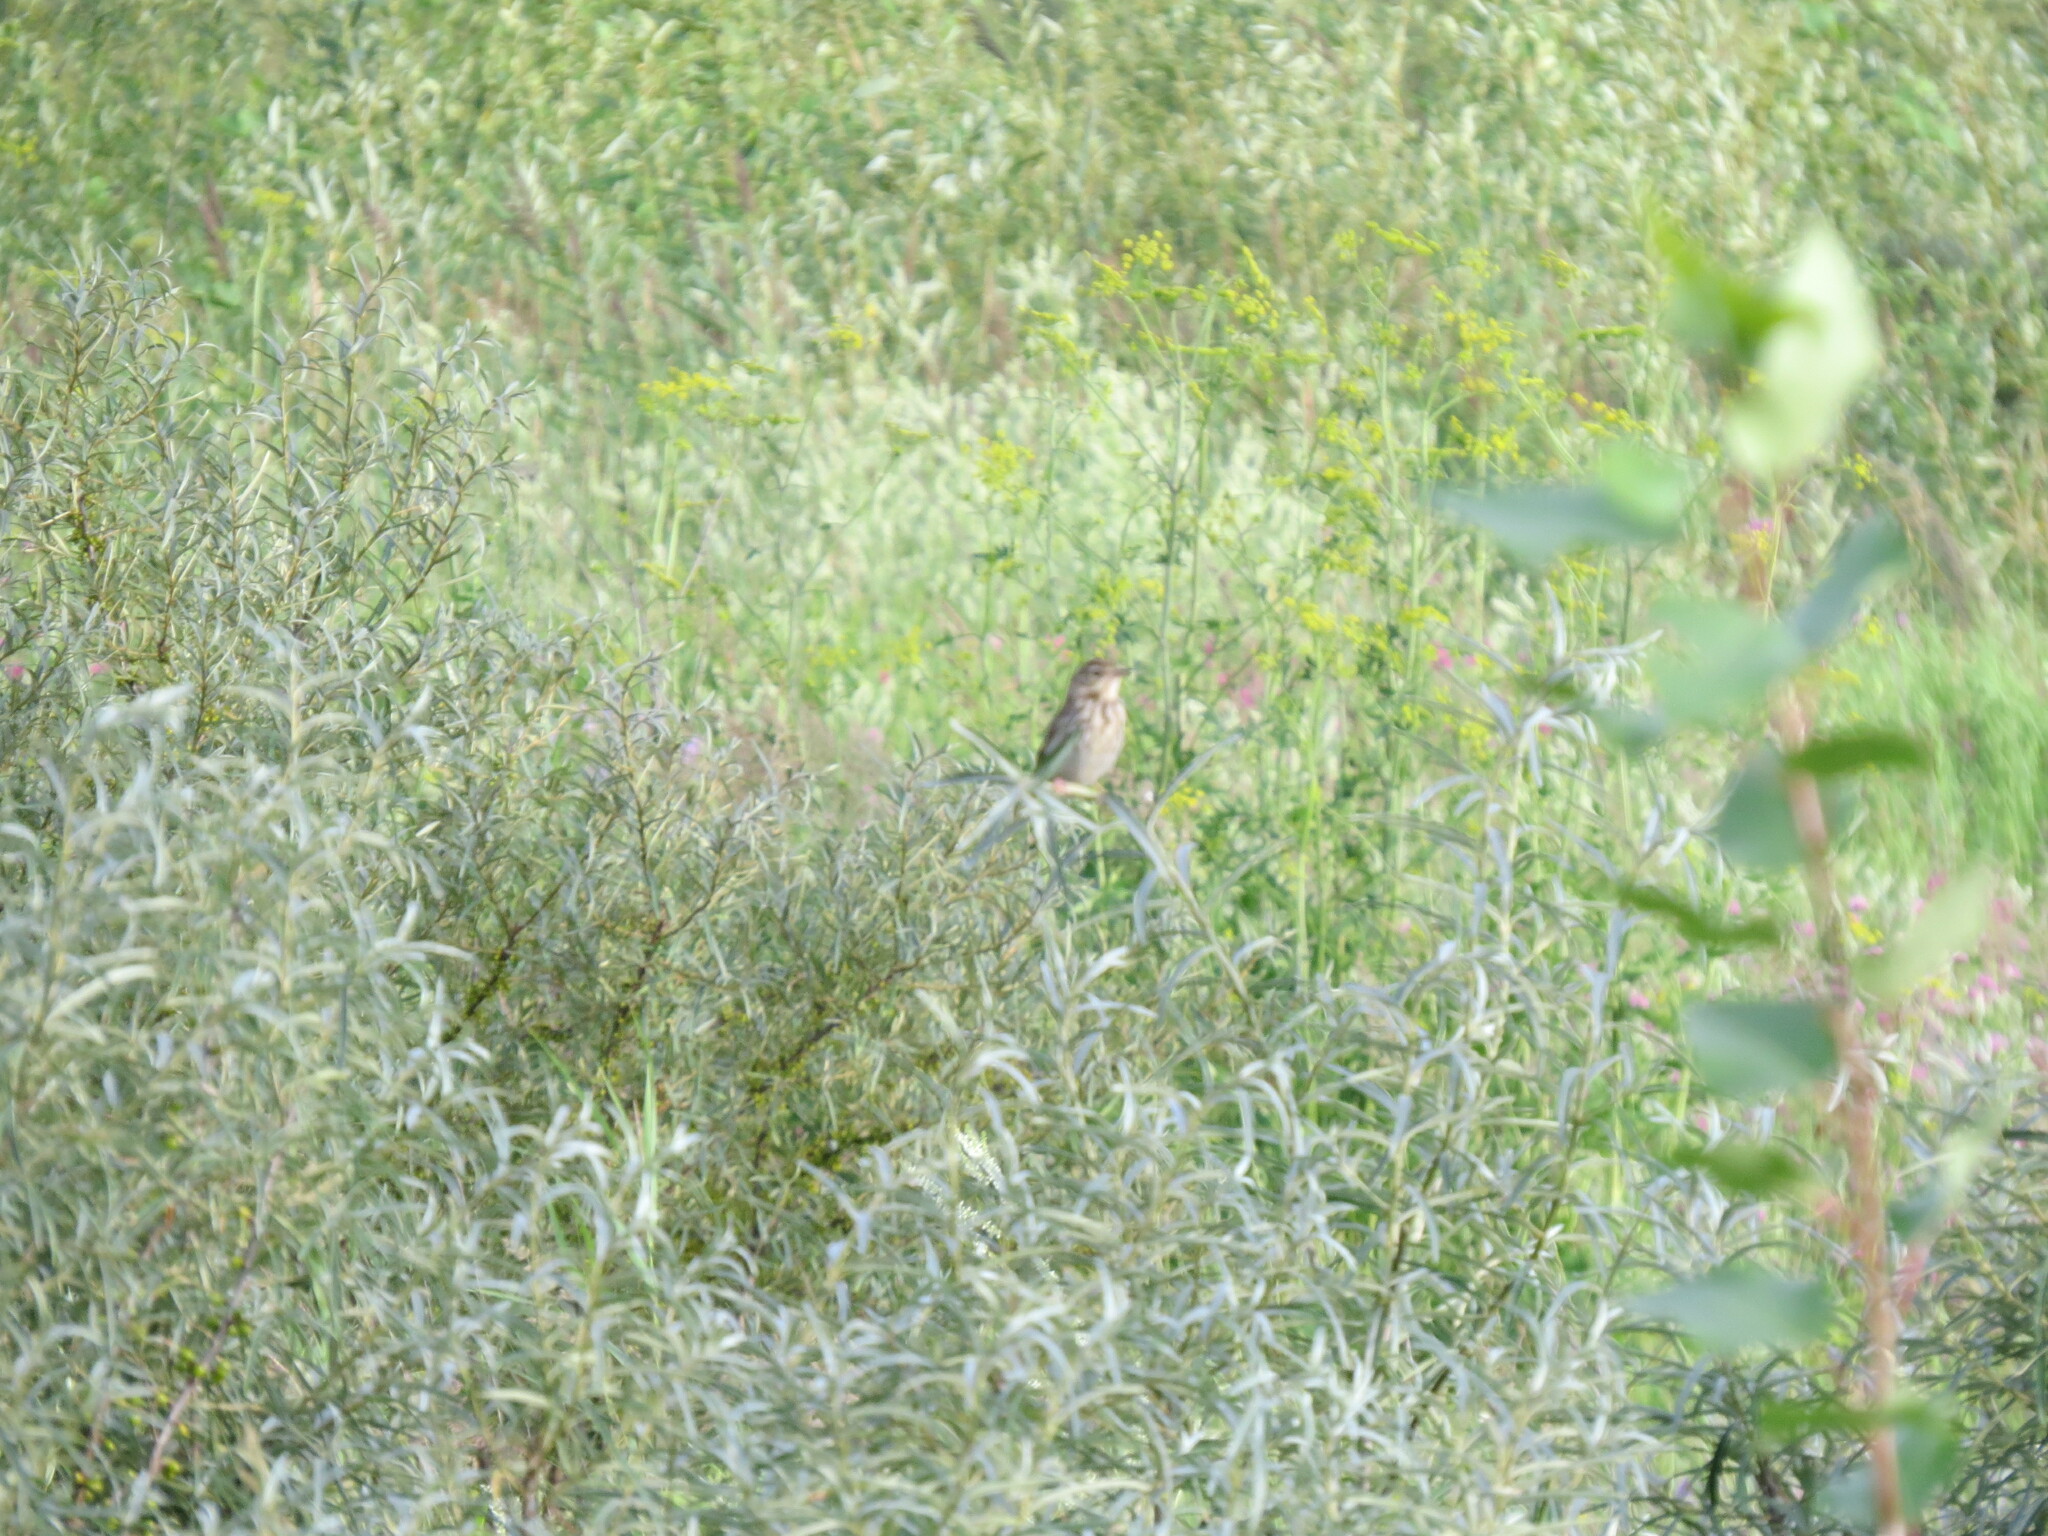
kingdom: Animalia
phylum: Chordata
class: Aves
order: Passeriformes
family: Motacillidae
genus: Anthus
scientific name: Anthus trivialis
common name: Tree pipit
